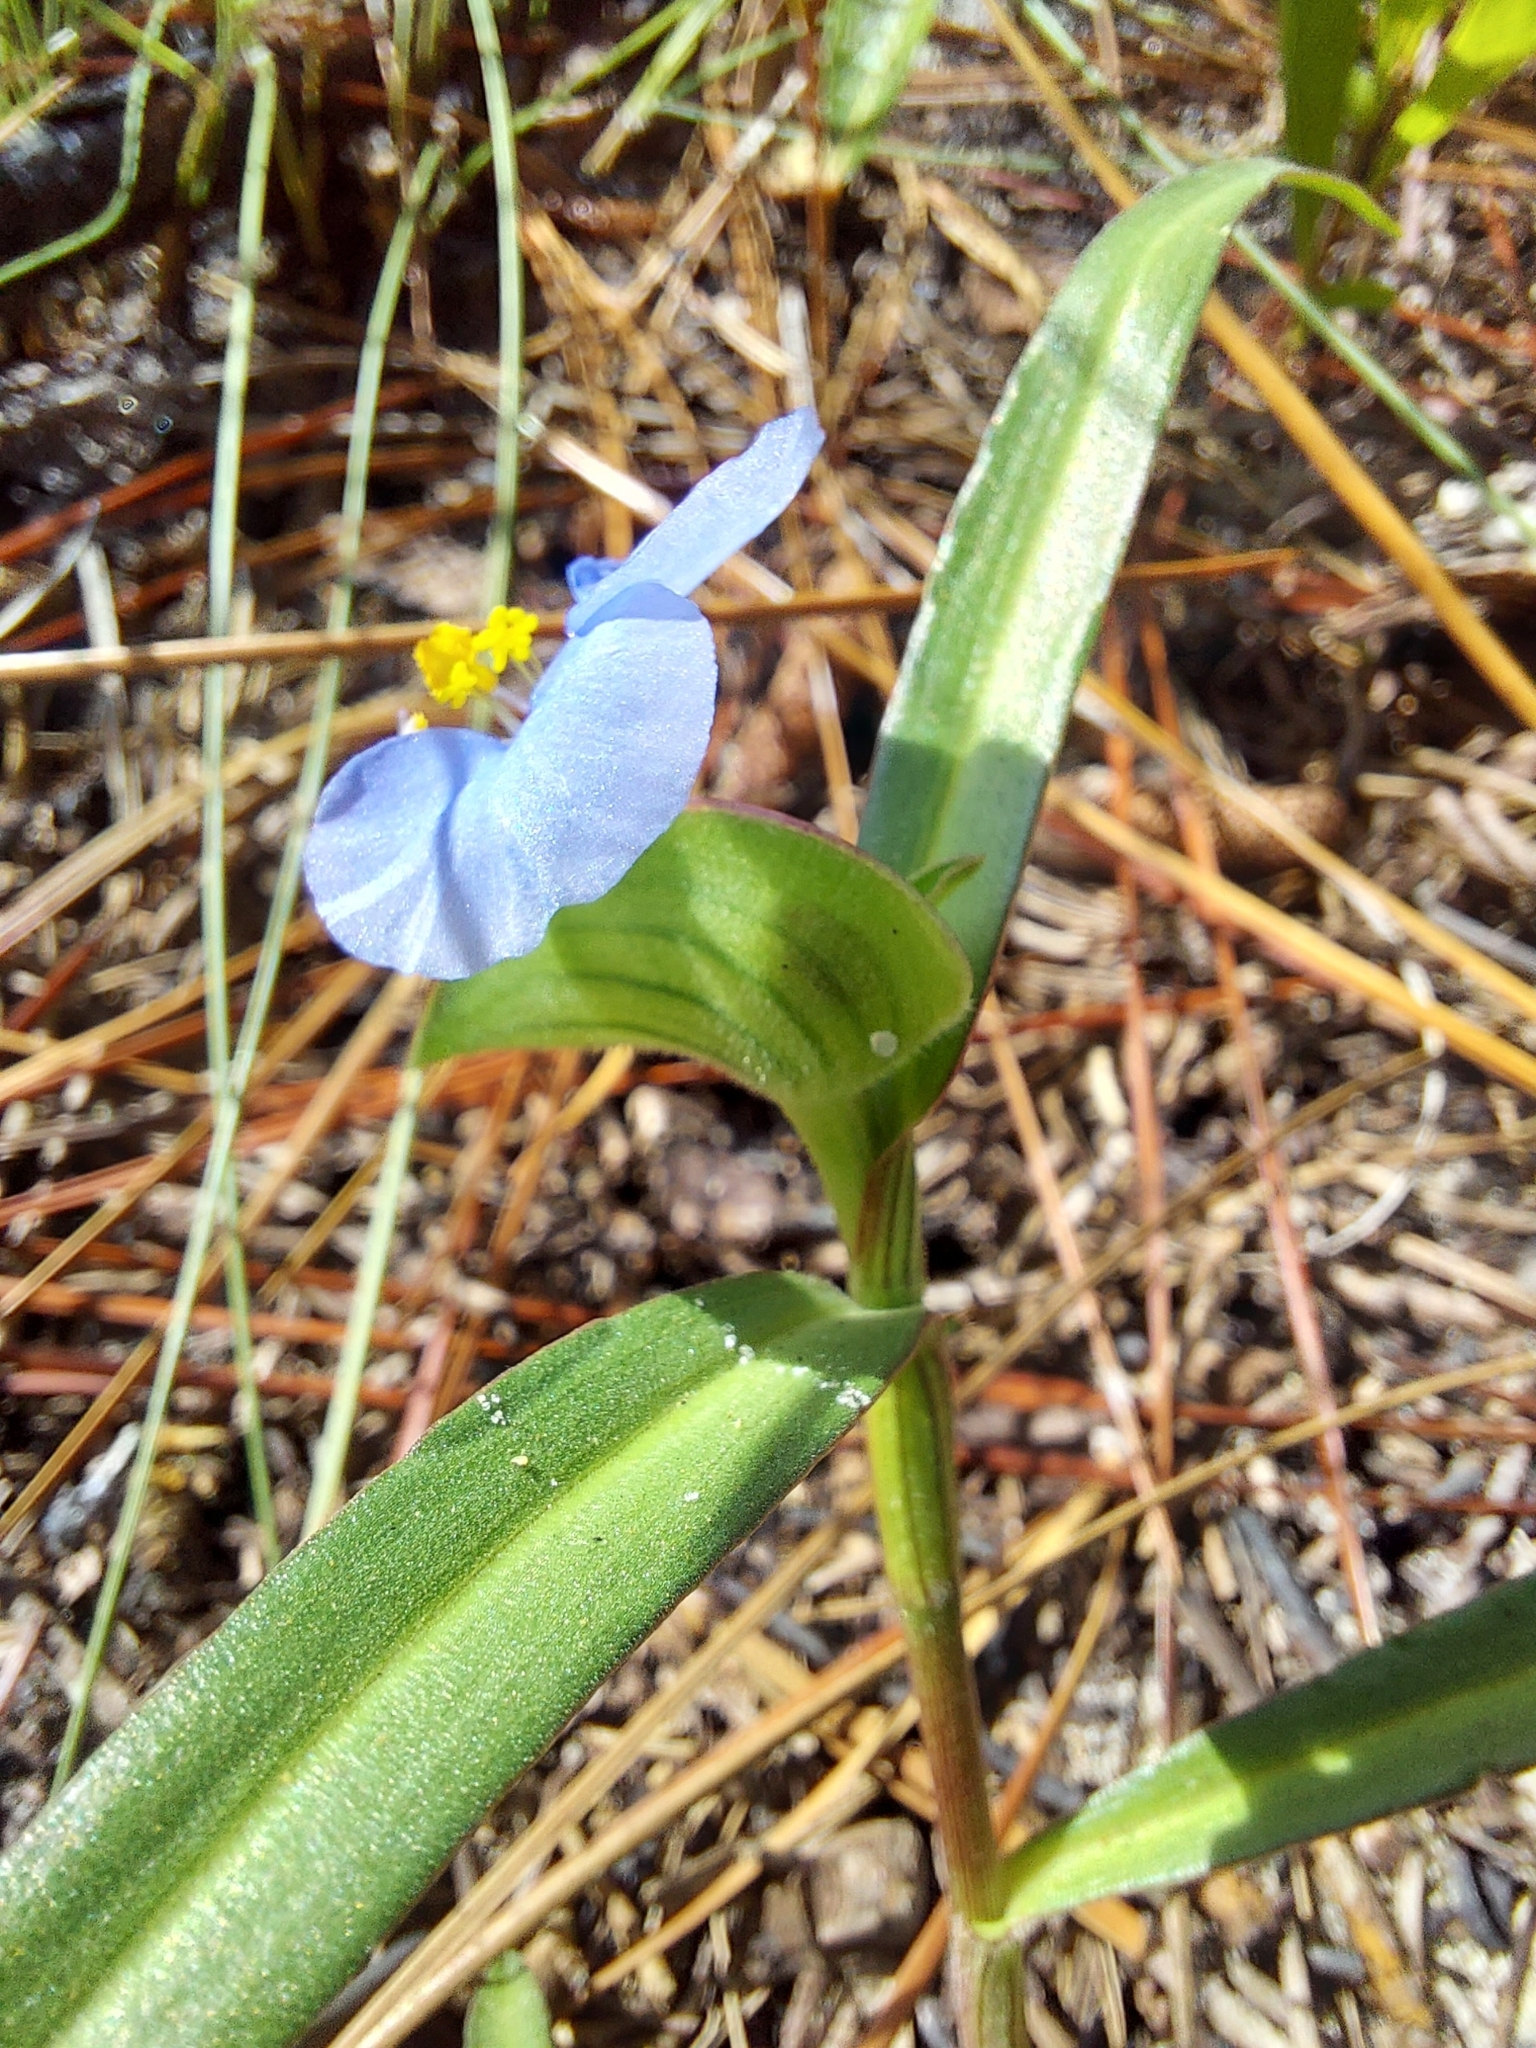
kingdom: Plantae
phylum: Tracheophyta
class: Liliopsida
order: Commelinales
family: Commelinaceae
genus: Commelina
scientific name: Commelina erecta
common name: Blousel blommetjie
